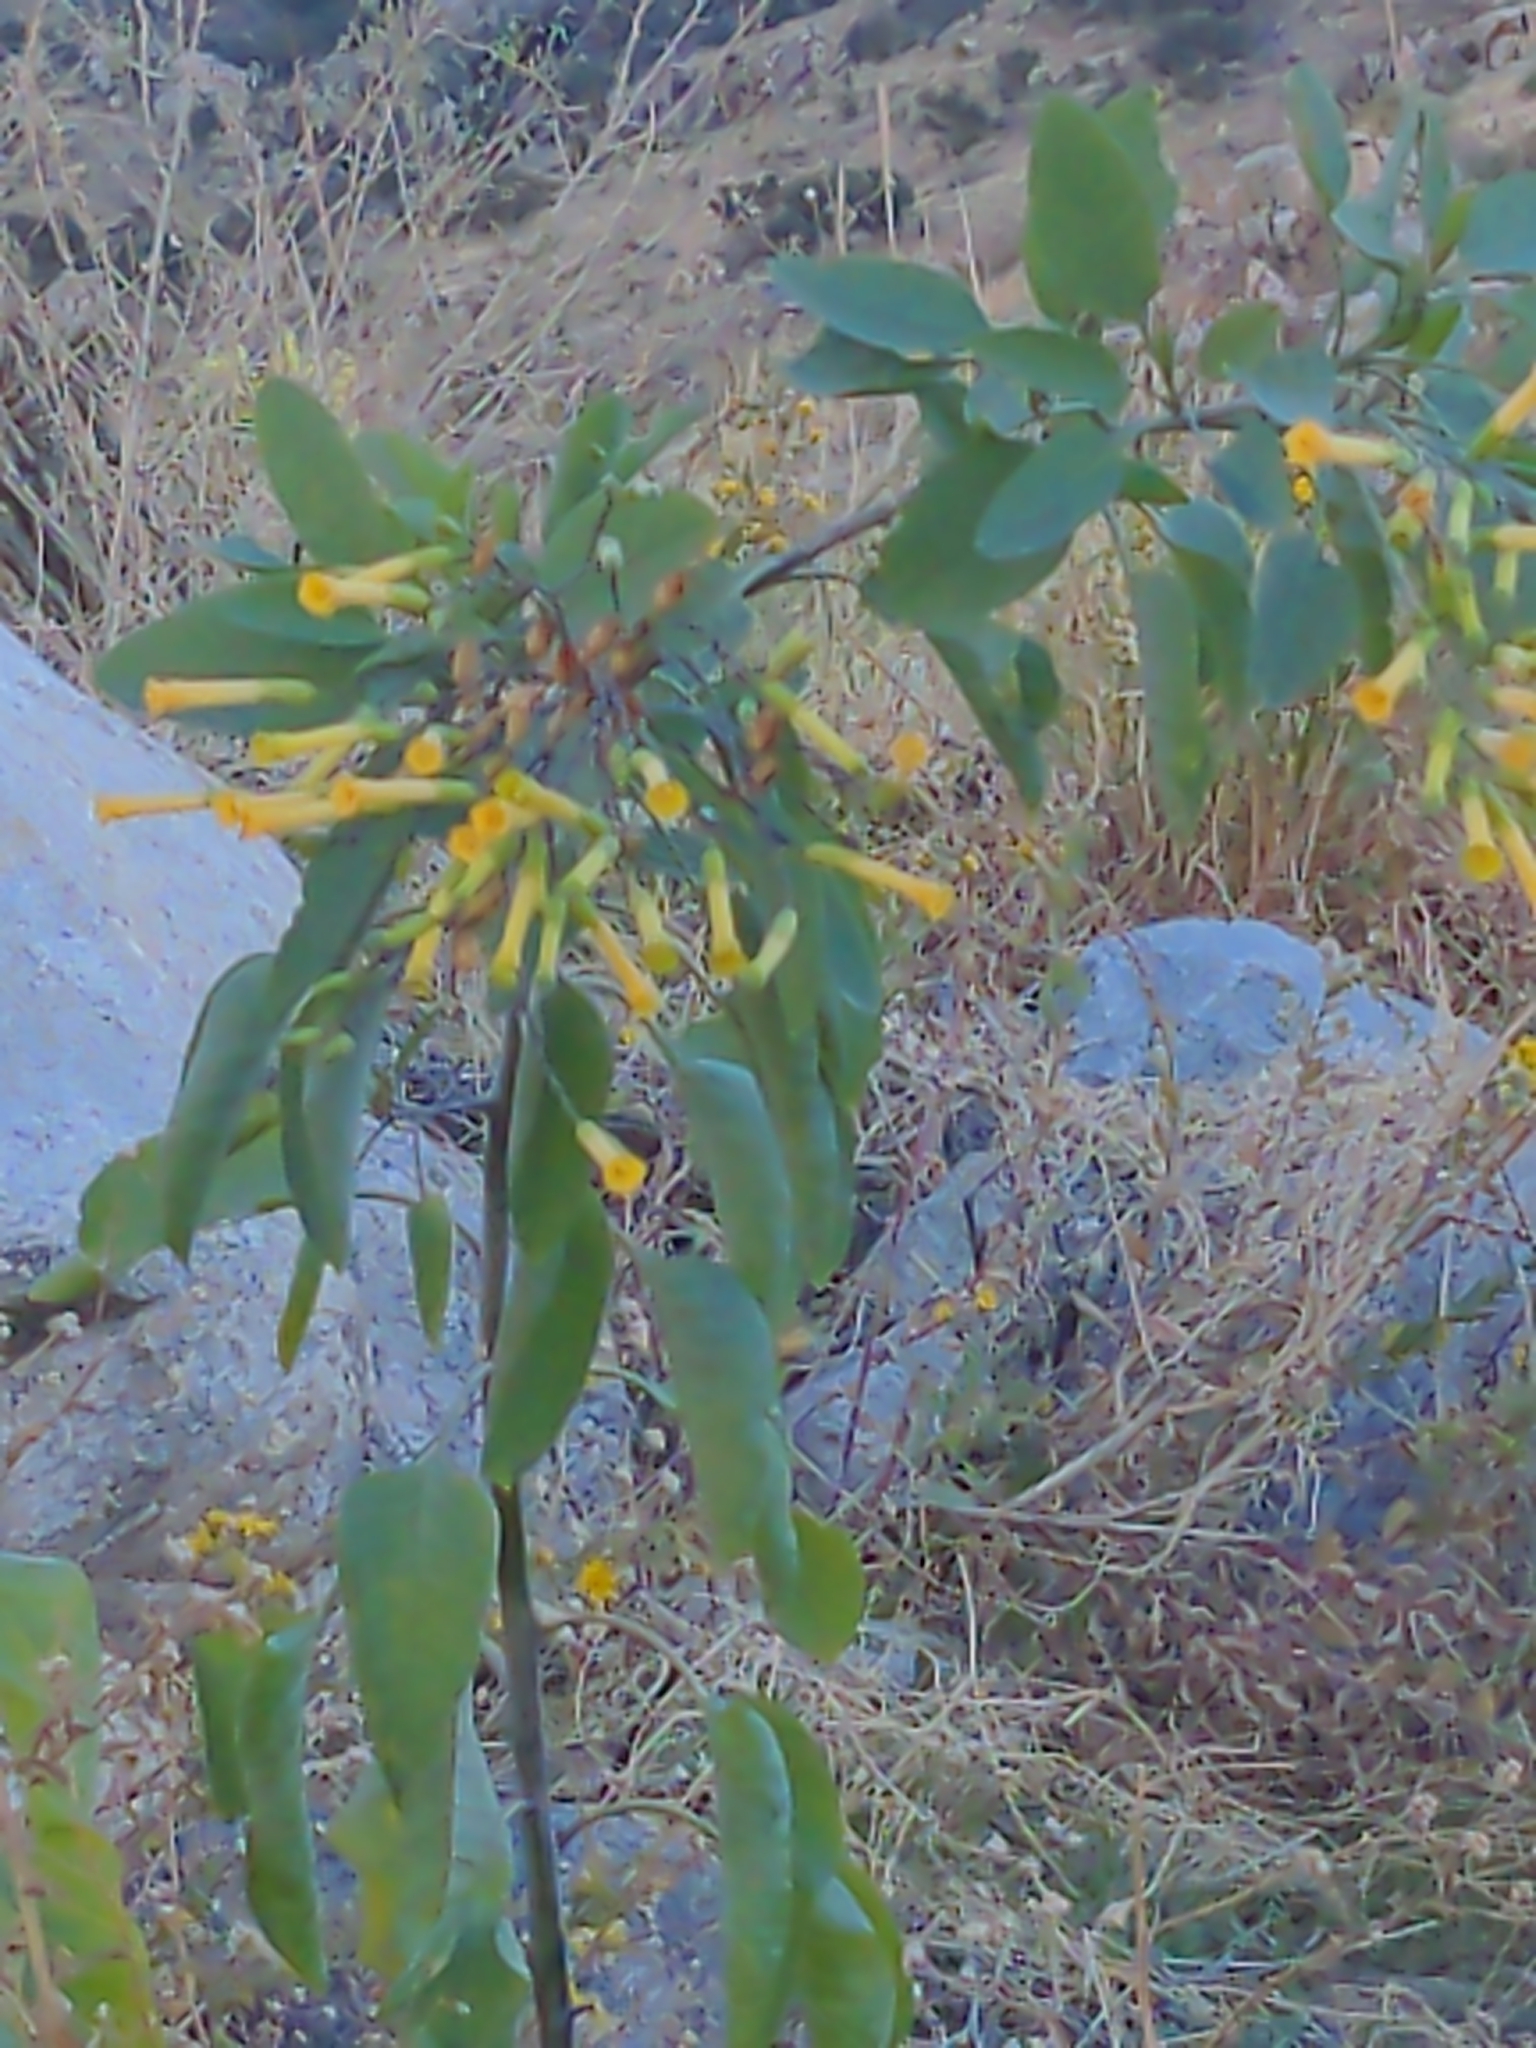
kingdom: Plantae
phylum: Tracheophyta
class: Magnoliopsida
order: Solanales
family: Solanaceae
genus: Nicotiana
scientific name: Nicotiana glauca
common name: Tree tobacco
